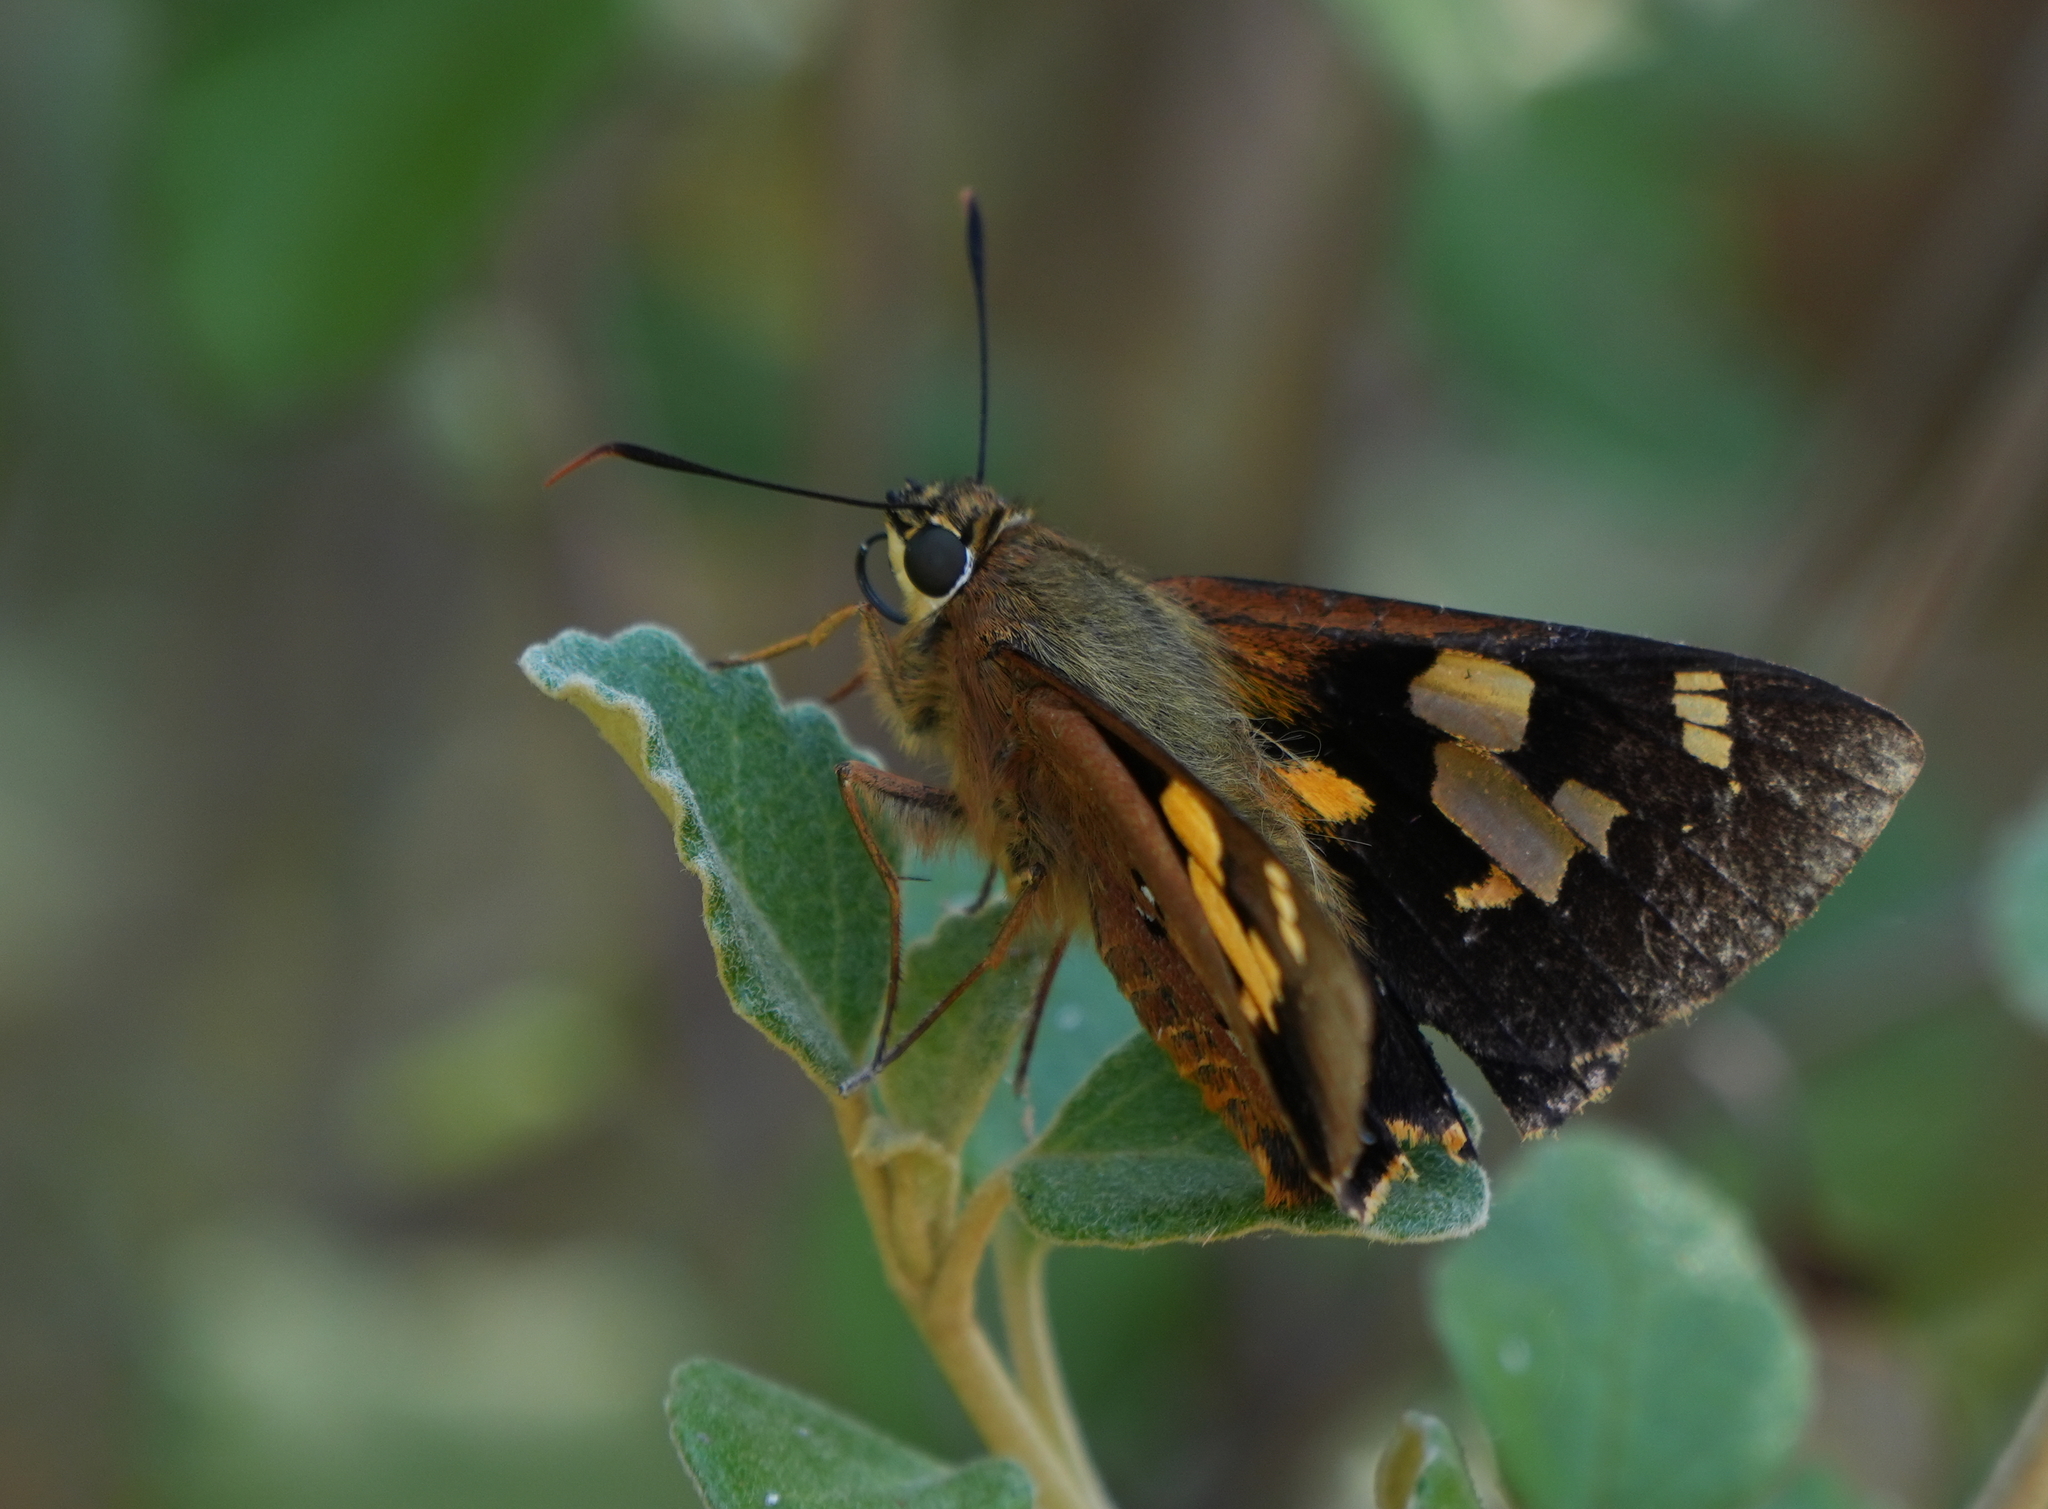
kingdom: Animalia
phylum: Arthropoda
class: Insecta
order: Lepidoptera
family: Hesperiidae
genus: Trapezites
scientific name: Trapezites symmomus
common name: Splendid ochre
